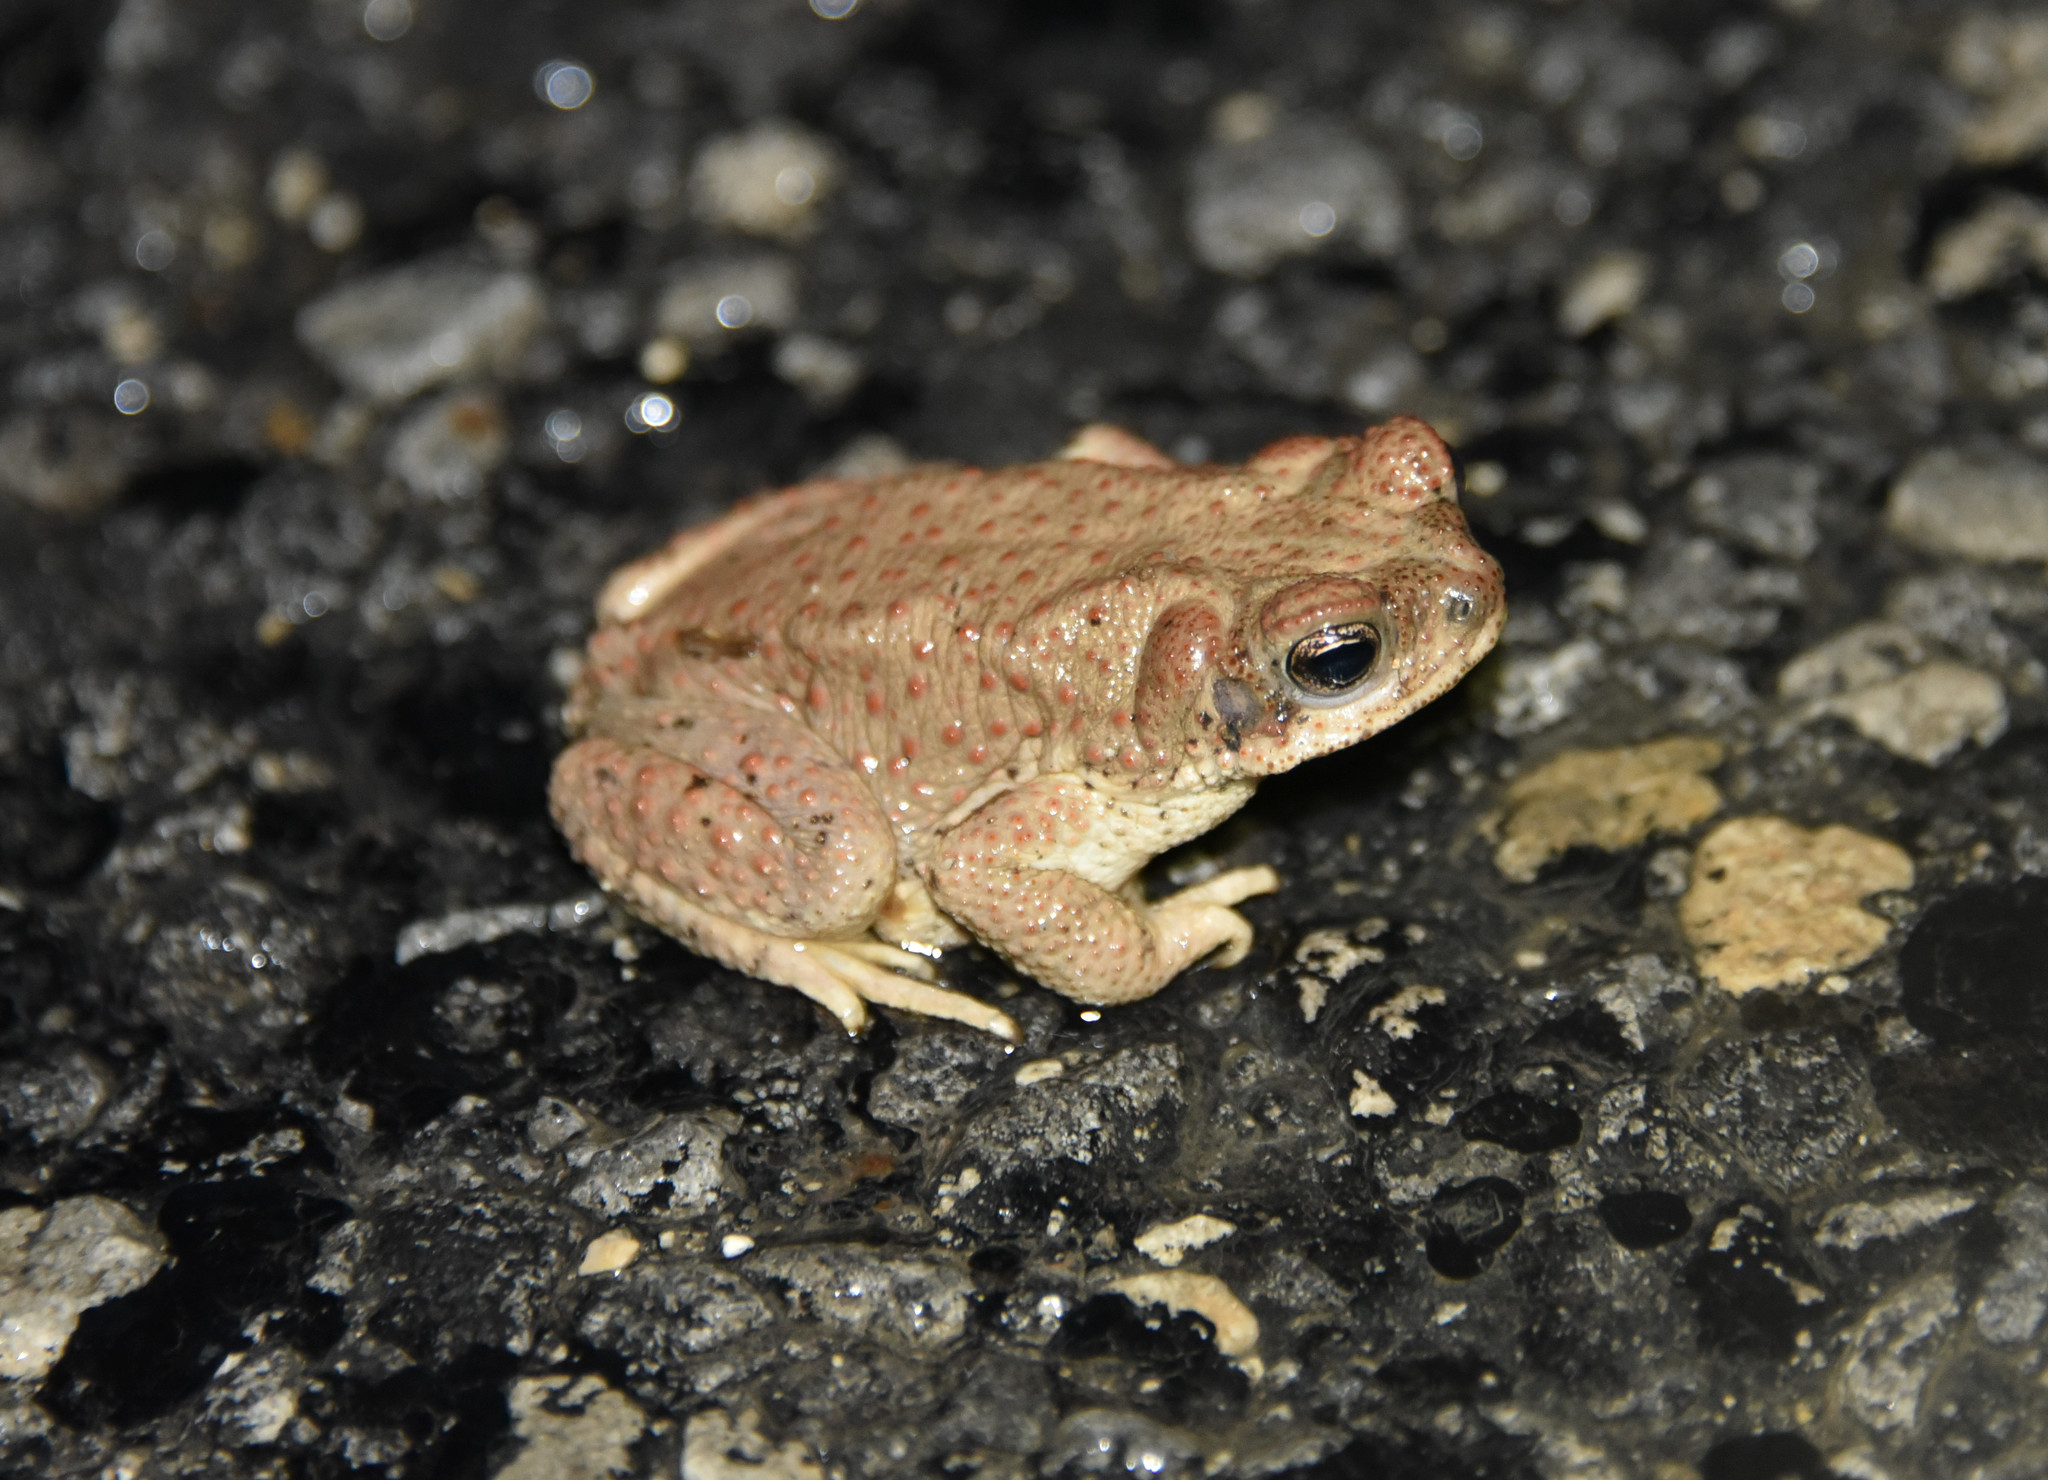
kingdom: Animalia
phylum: Chordata
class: Amphibia
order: Anura
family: Bufonidae
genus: Anaxyrus
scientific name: Anaxyrus punctatus
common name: Red-spotted toad
